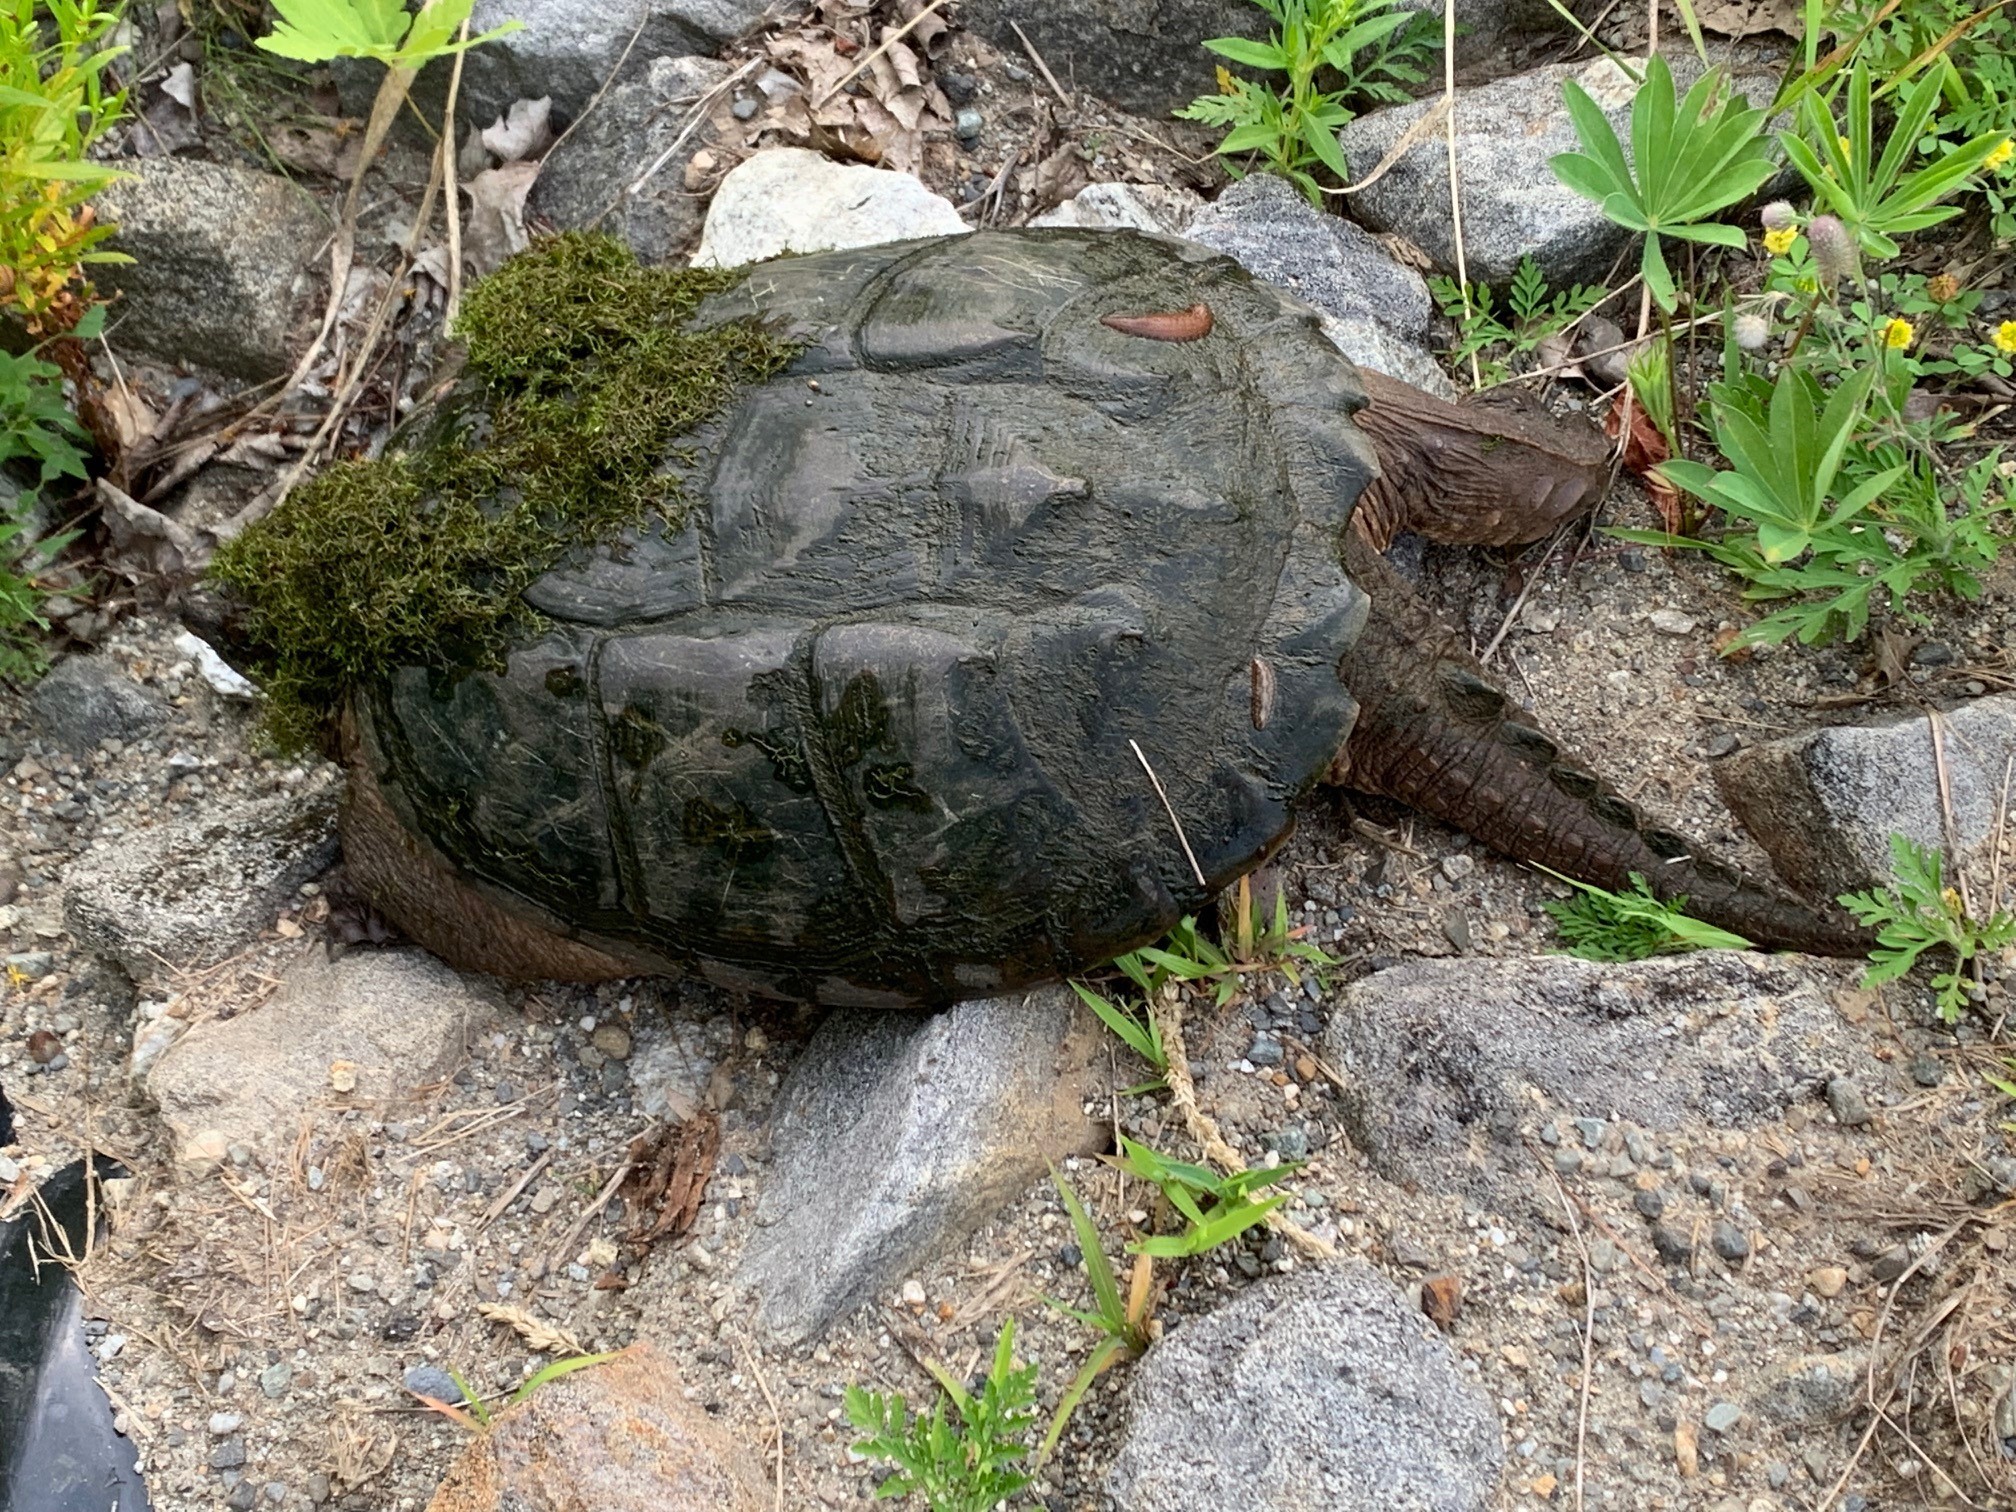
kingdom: Animalia
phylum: Chordata
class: Testudines
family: Chelydridae
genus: Chelydra
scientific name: Chelydra serpentina
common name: Common snapping turtle
